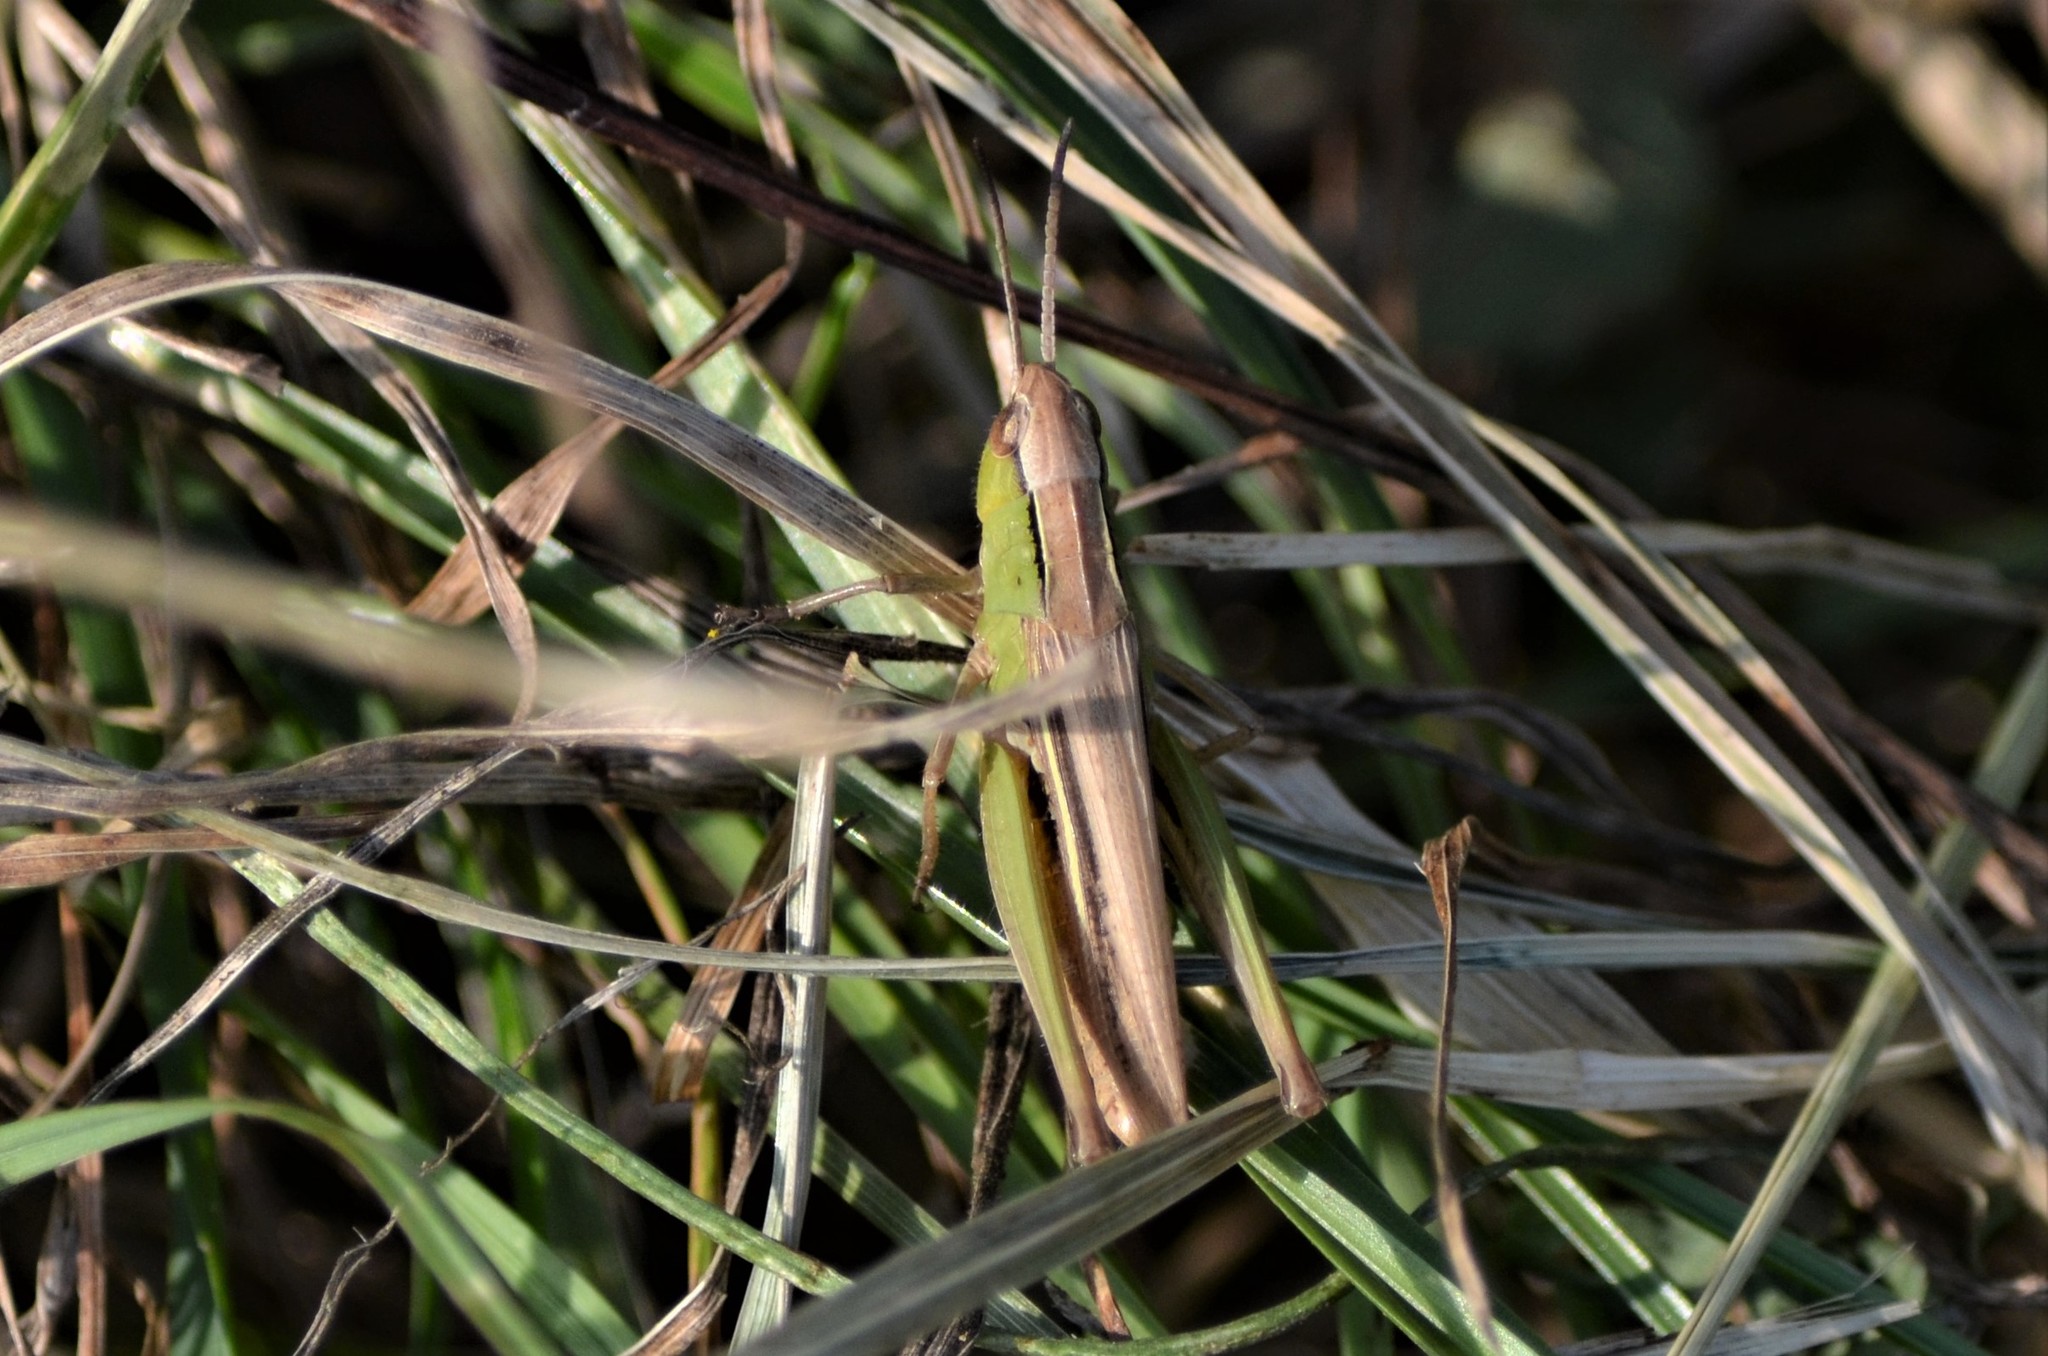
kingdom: Animalia
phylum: Arthropoda
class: Insecta
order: Orthoptera
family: Acrididae
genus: Chorthippus
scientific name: Chorthippus albomarginatus
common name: Lesser marsh grasshopper
